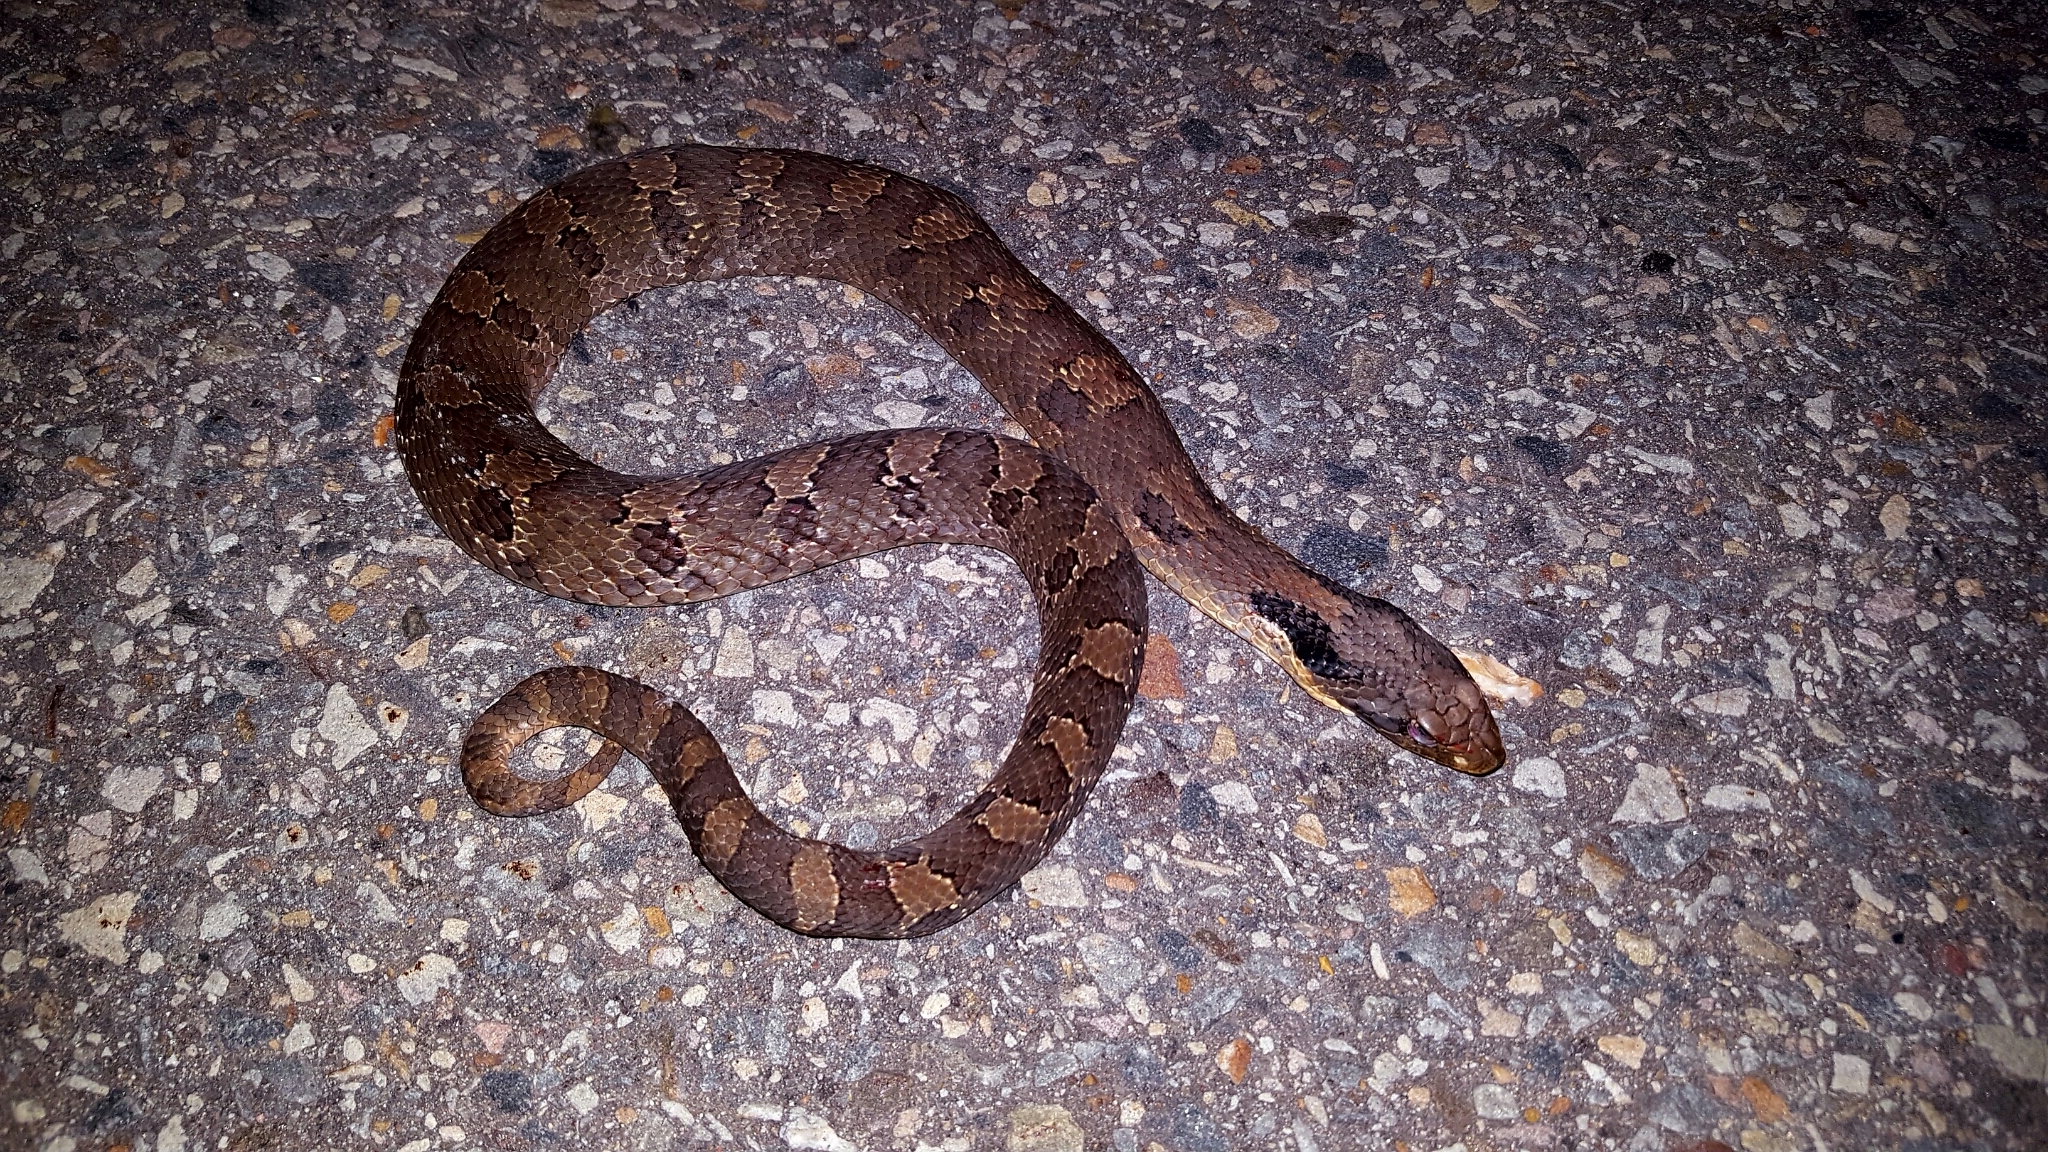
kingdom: Animalia
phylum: Chordata
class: Squamata
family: Colubridae
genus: Heterodon
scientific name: Heterodon platirhinos
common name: Eastern hognose snake
